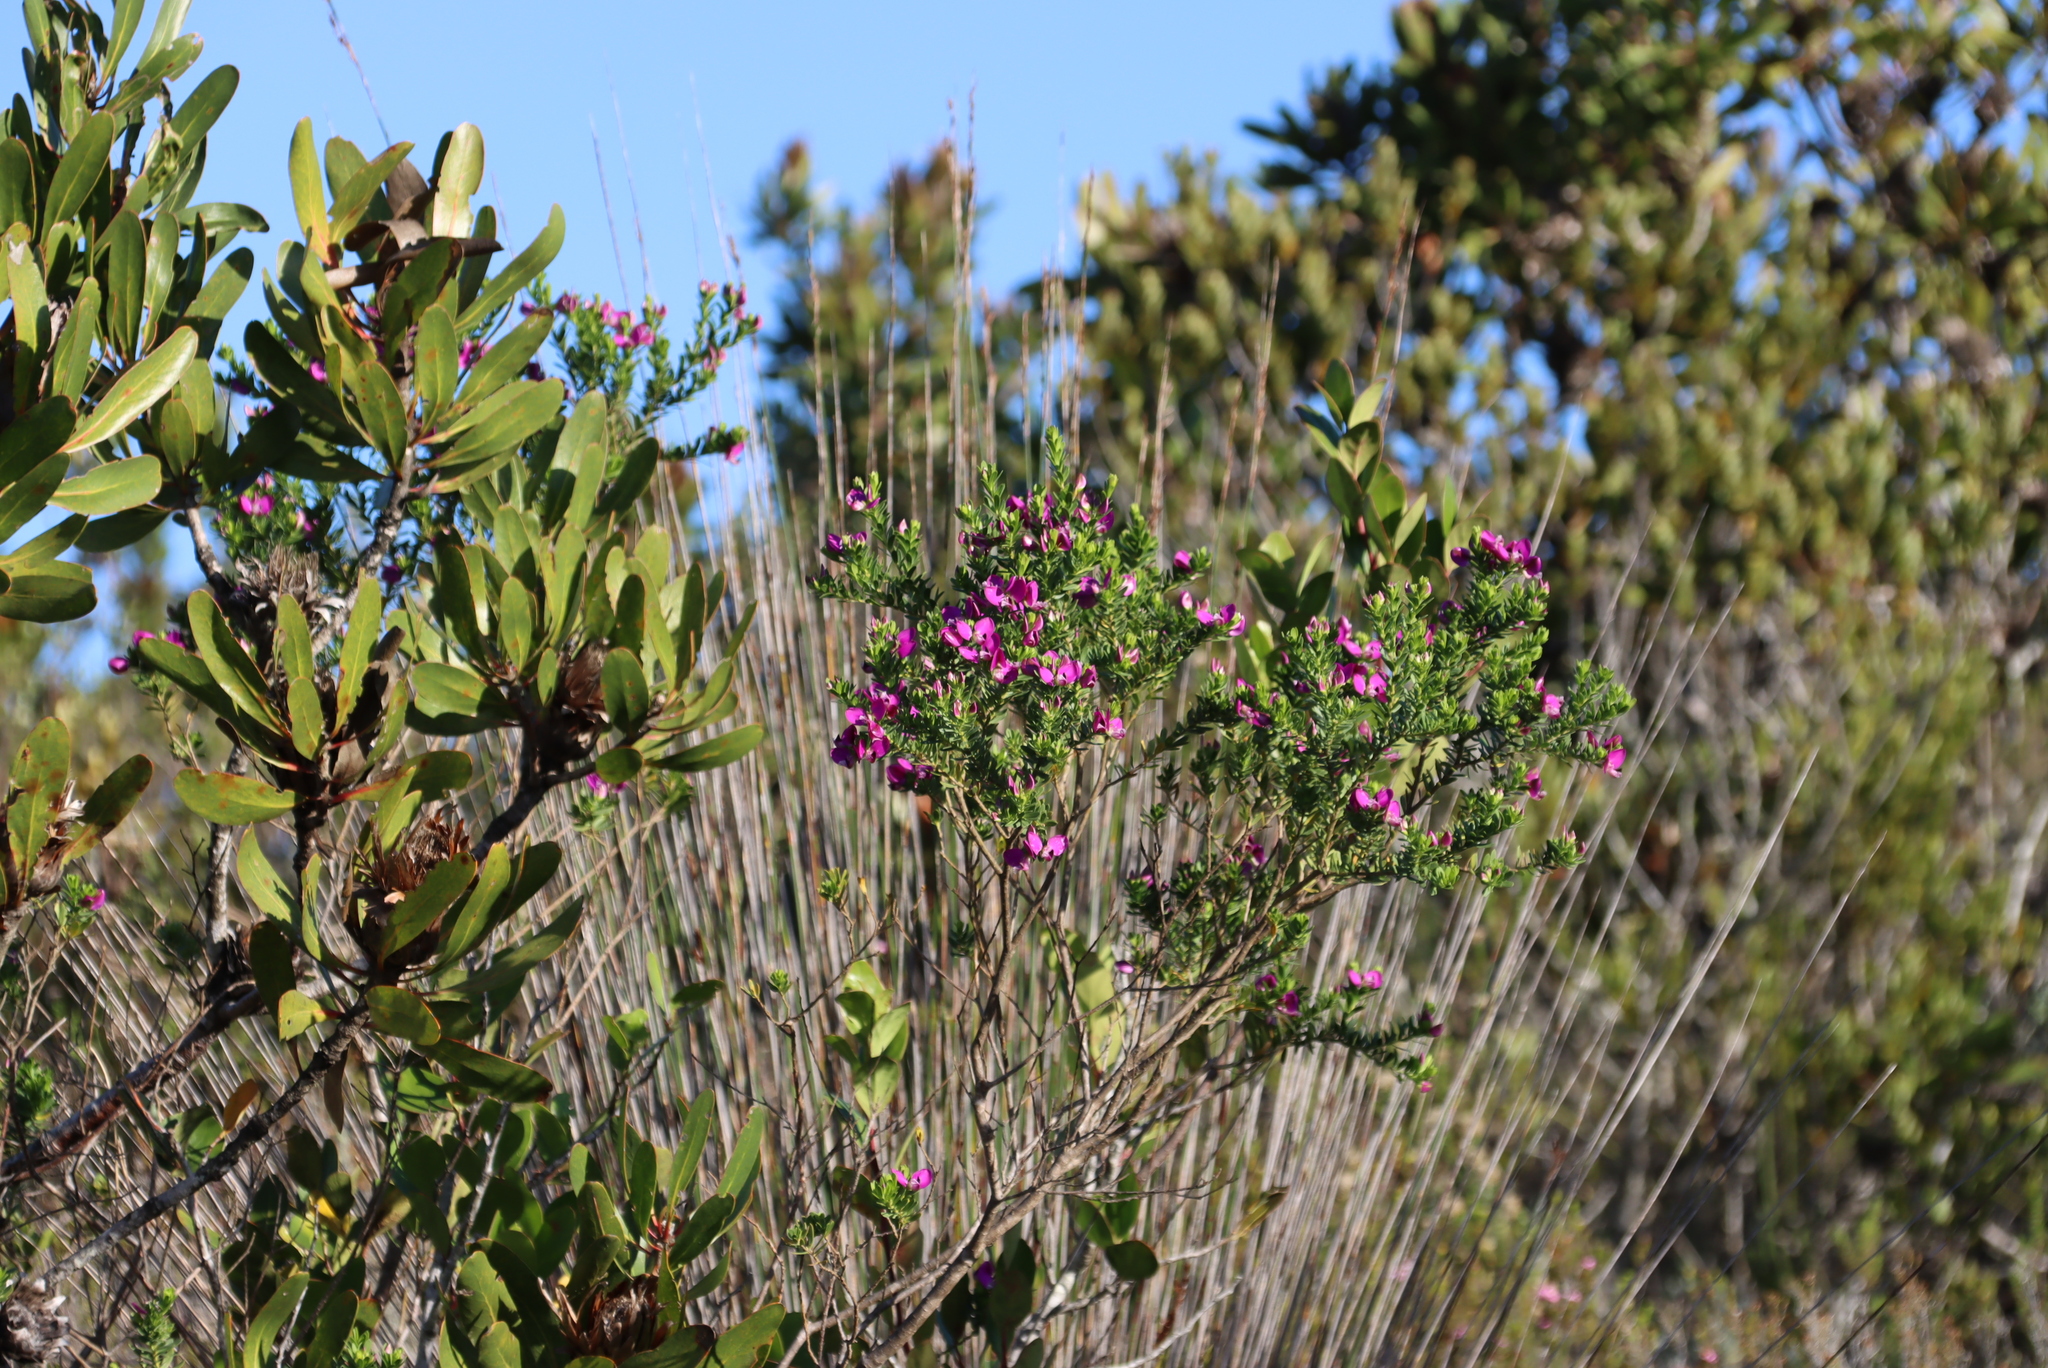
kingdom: Plantae
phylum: Tracheophyta
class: Magnoliopsida
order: Fabales
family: Polygalaceae
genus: Polygala
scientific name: Polygala myrtifolia
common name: Myrtle-leaf milkwort
